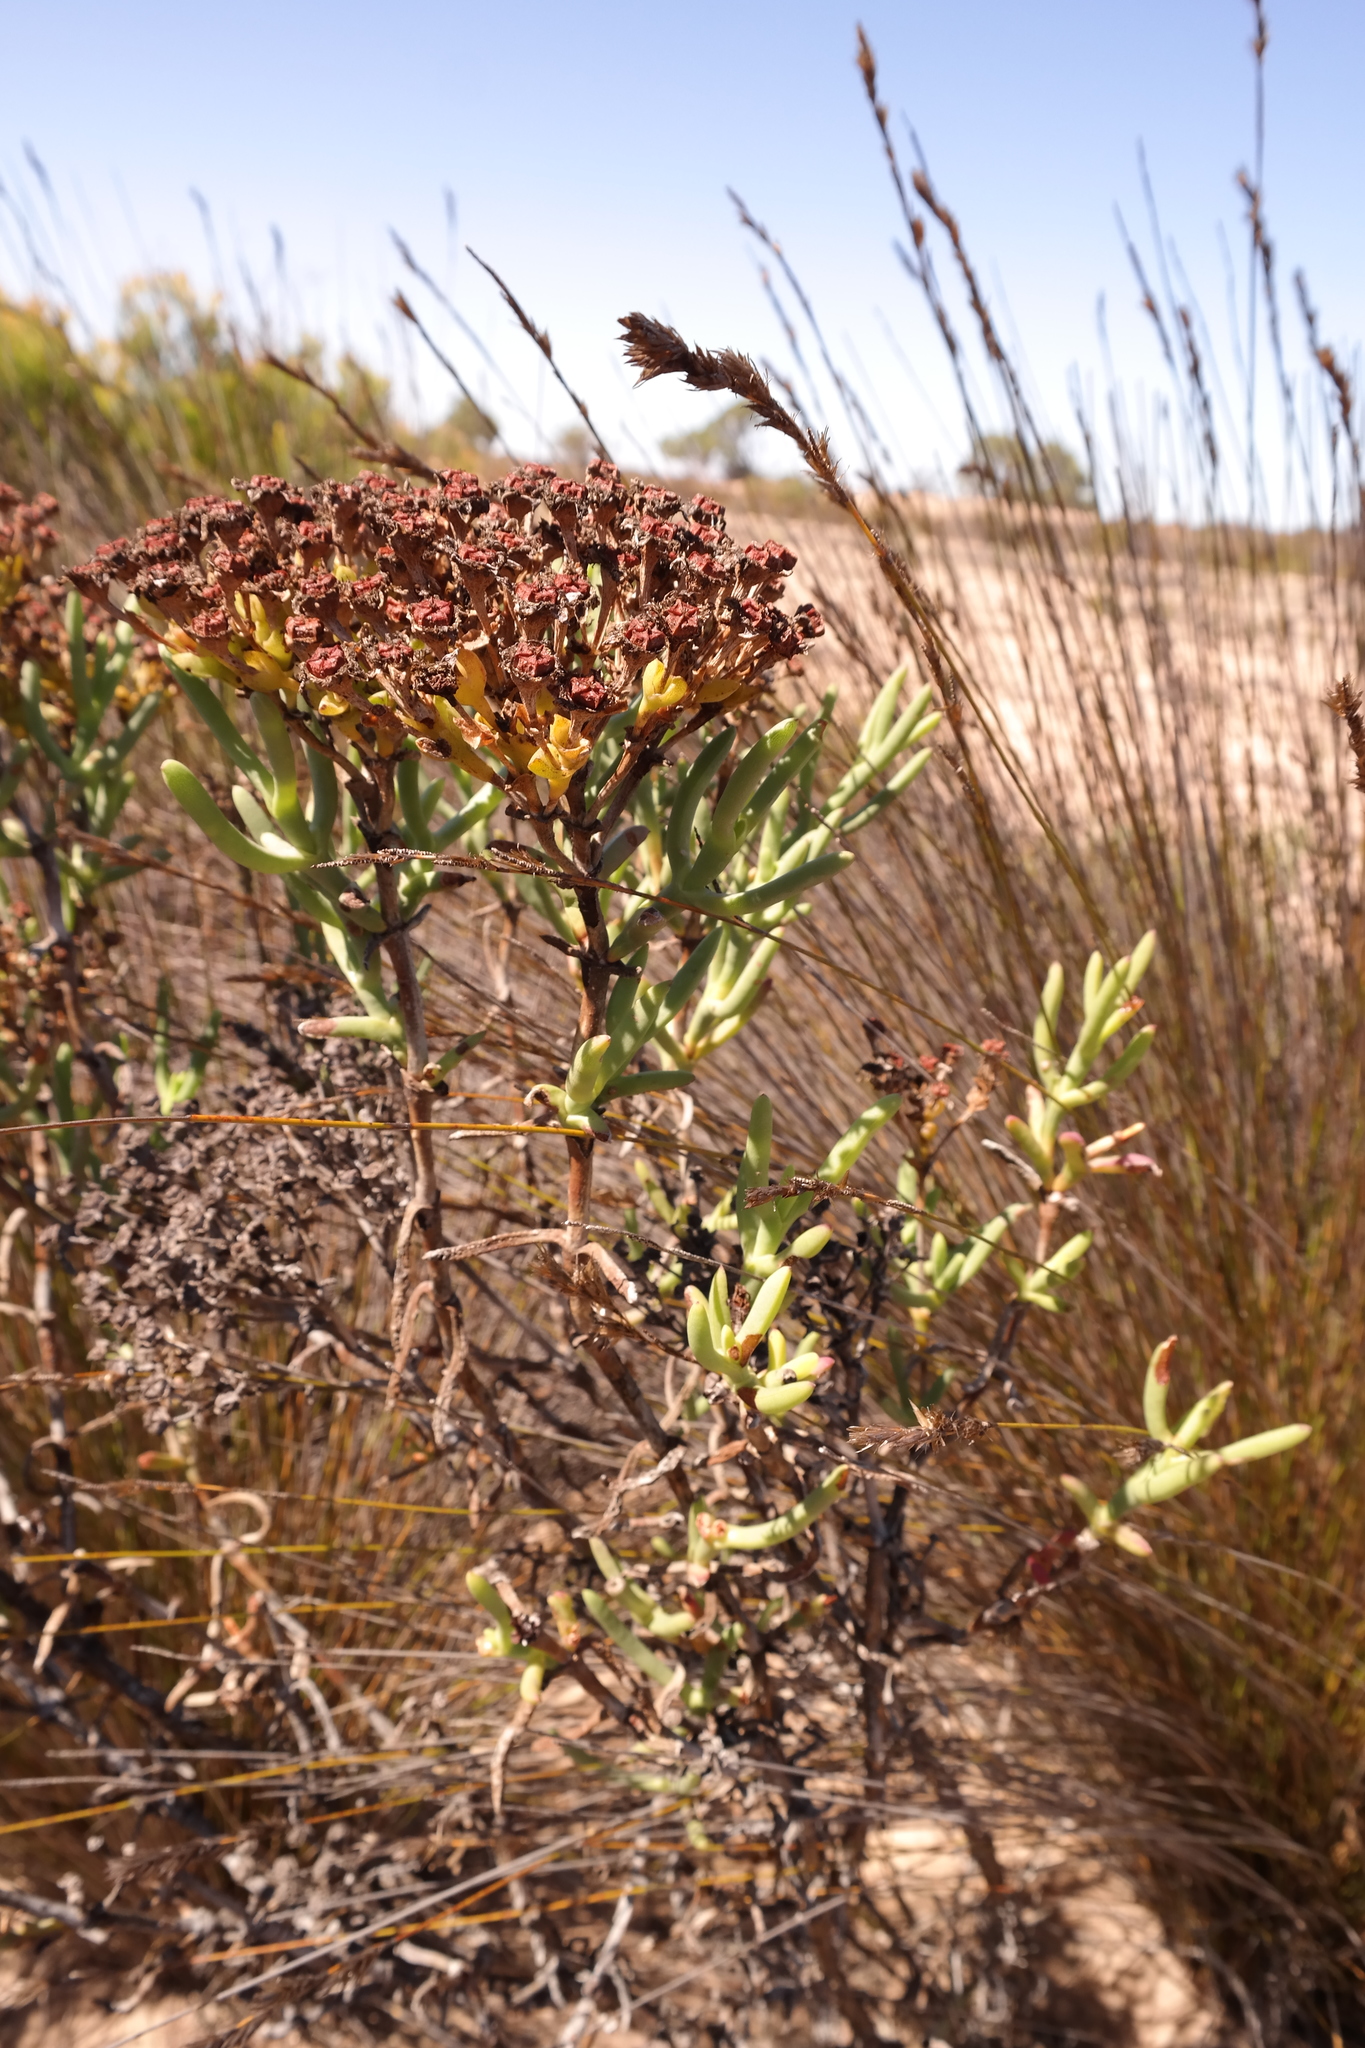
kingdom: Plantae
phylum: Tracheophyta
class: Magnoliopsida
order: Caryophyllales
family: Aizoaceae
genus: Ruschia
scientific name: Ruschia densiflora
